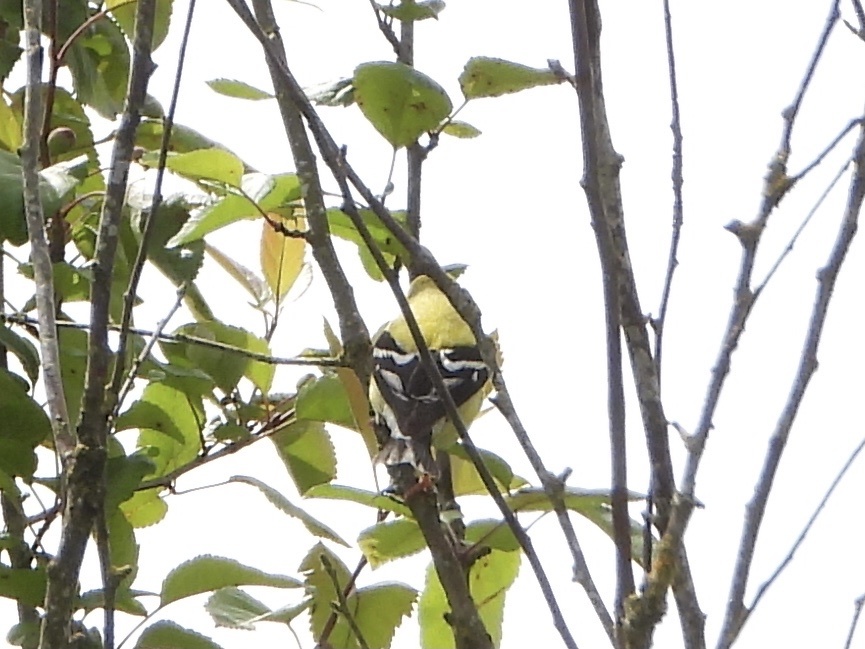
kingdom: Animalia
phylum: Chordata
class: Aves
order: Passeriformes
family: Fringillidae
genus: Spinus
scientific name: Spinus tristis
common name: American goldfinch
